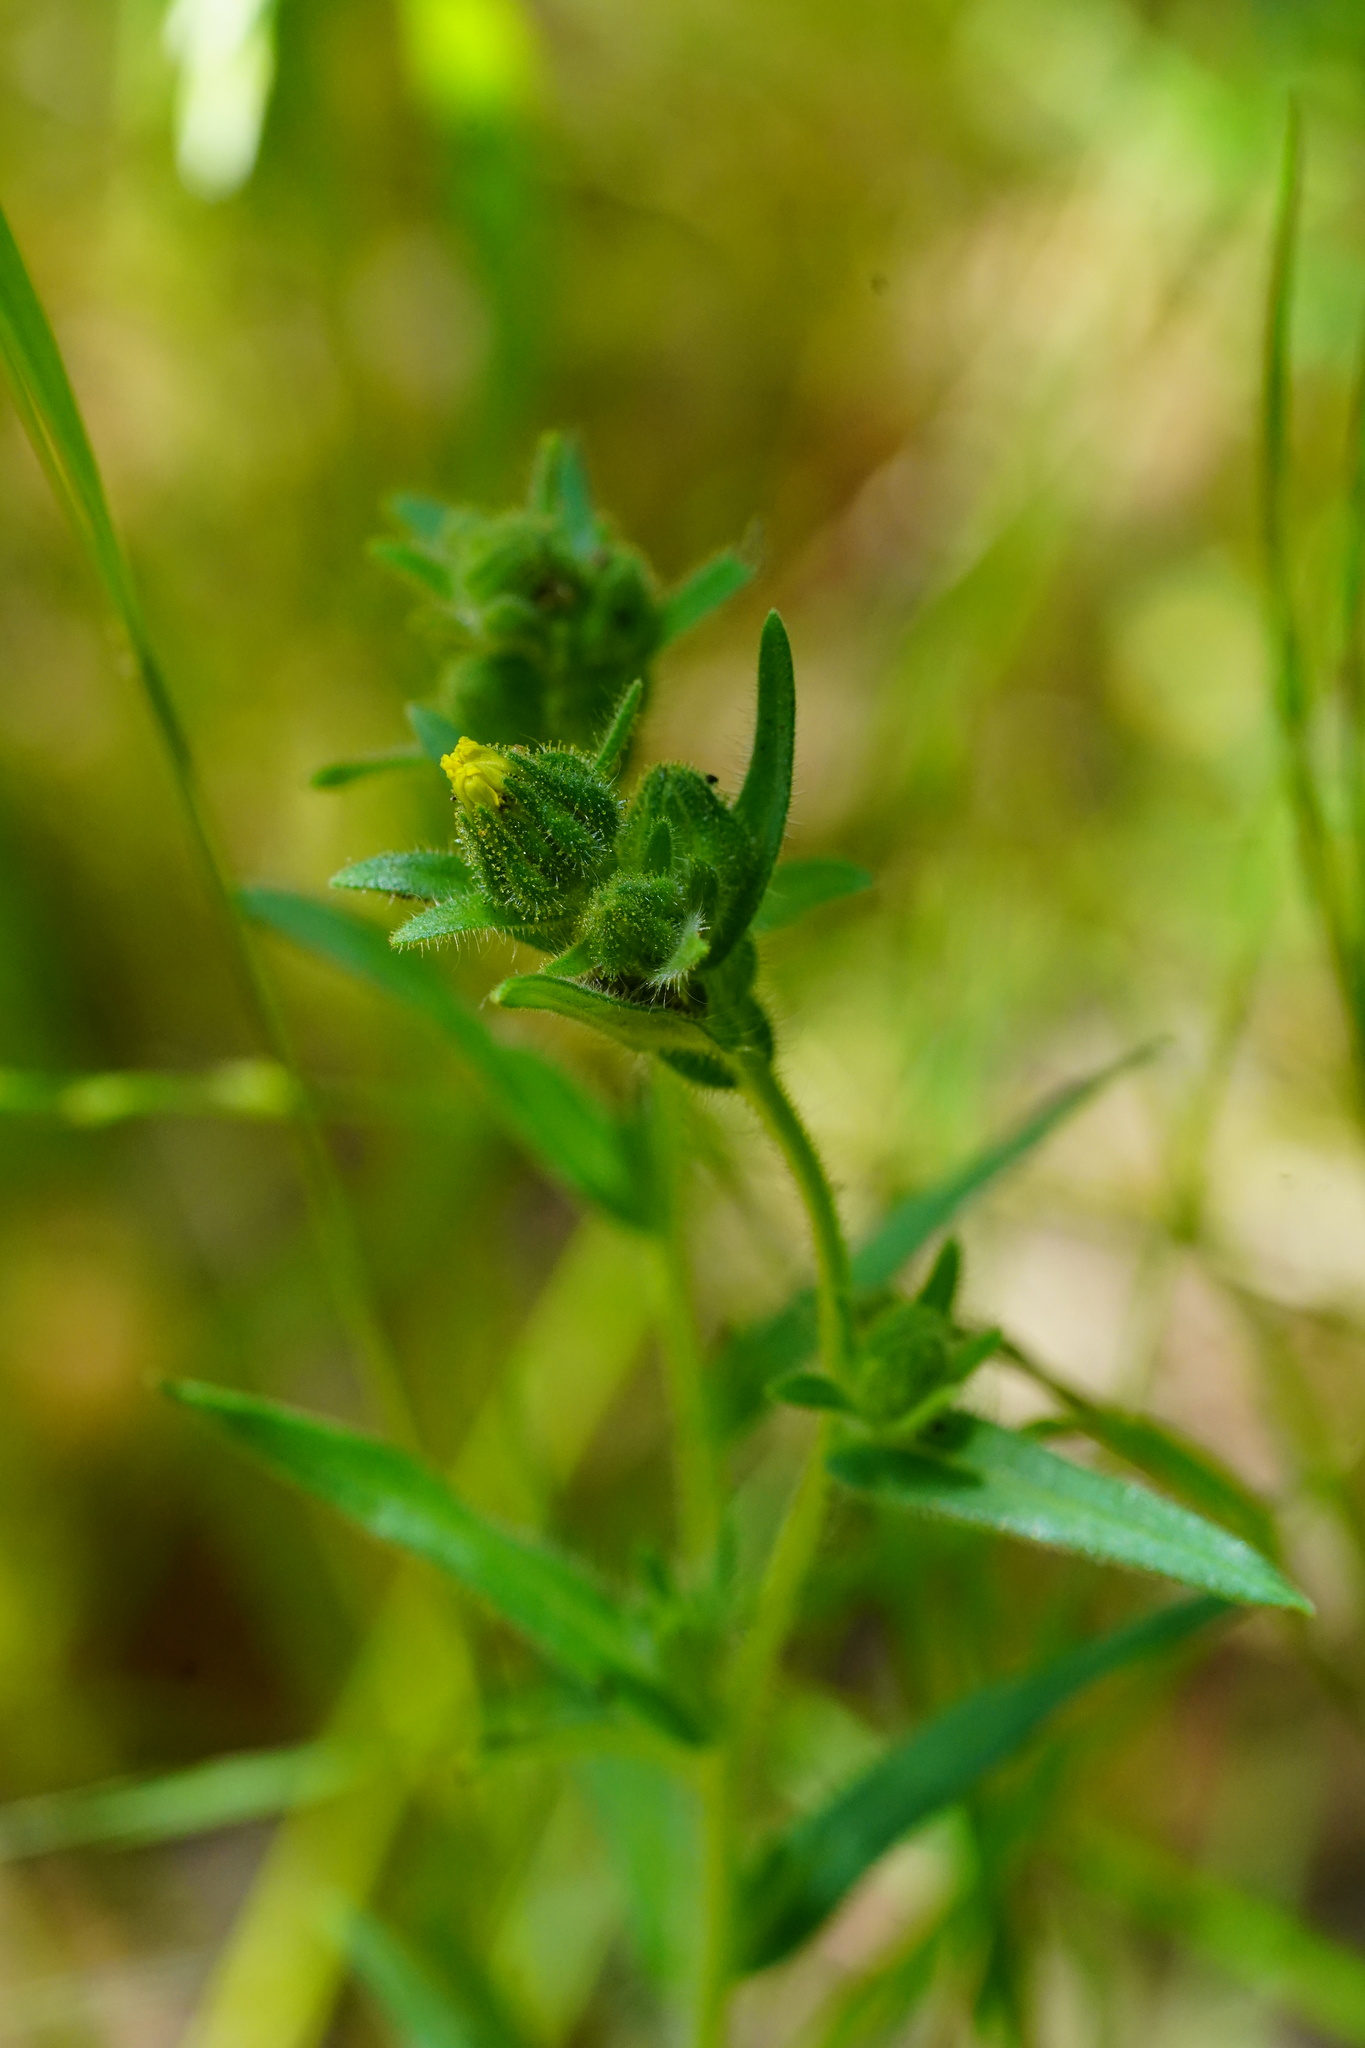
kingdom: Plantae
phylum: Tracheophyta
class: Magnoliopsida
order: Asterales
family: Asteraceae
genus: Madia
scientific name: Madia gracilis
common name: Grassy tarweed
